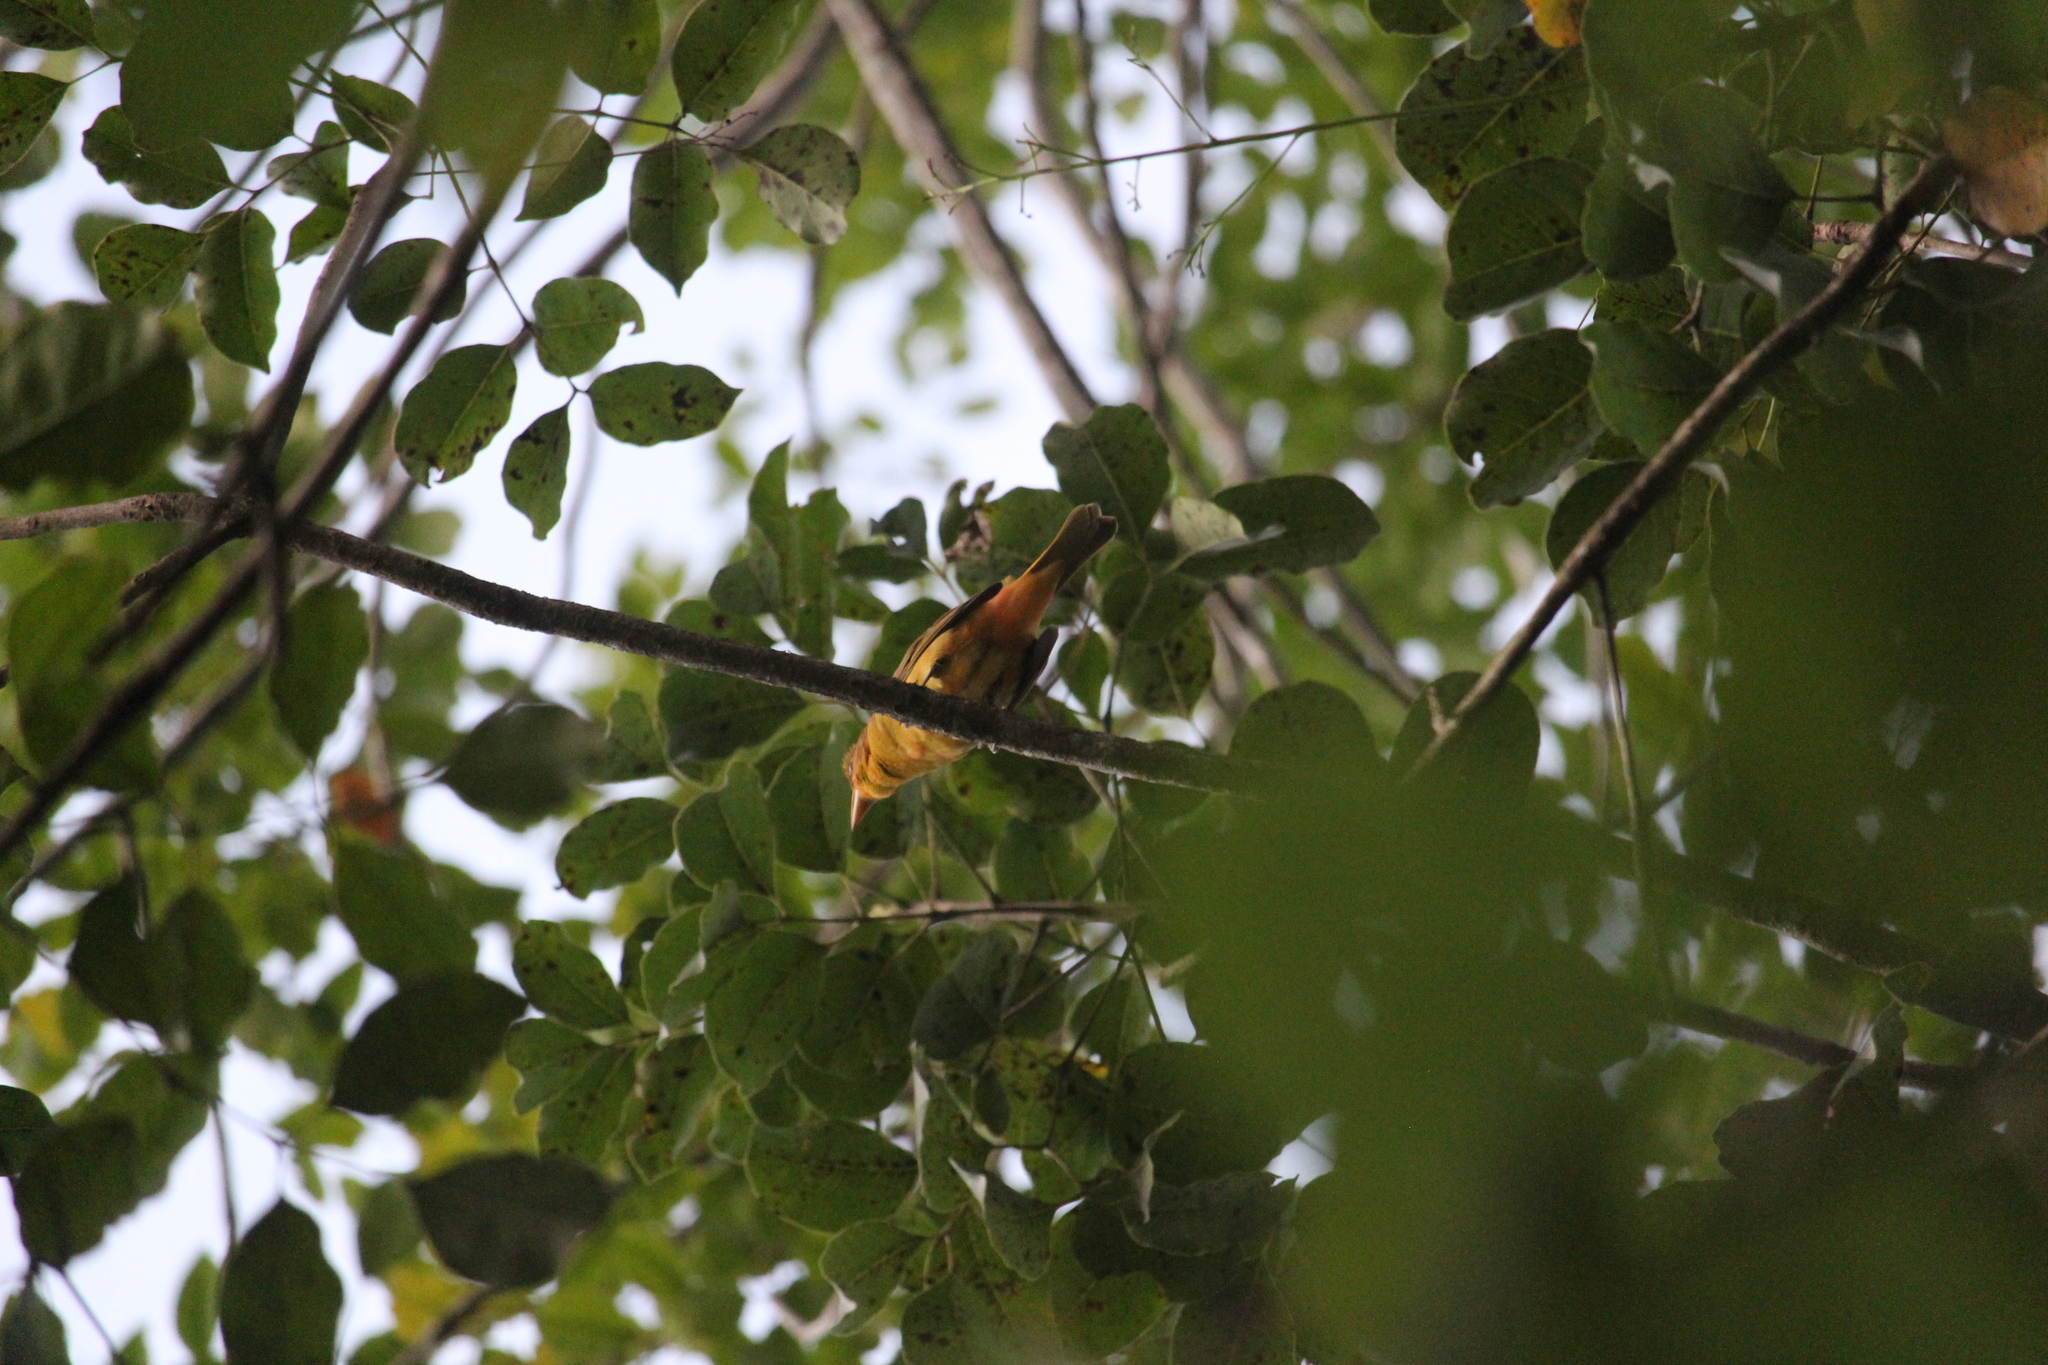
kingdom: Animalia
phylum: Chordata
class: Aves
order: Passeriformes
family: Cardinalidae
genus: Piranga
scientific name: Piranga rubra
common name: Summer tanager
